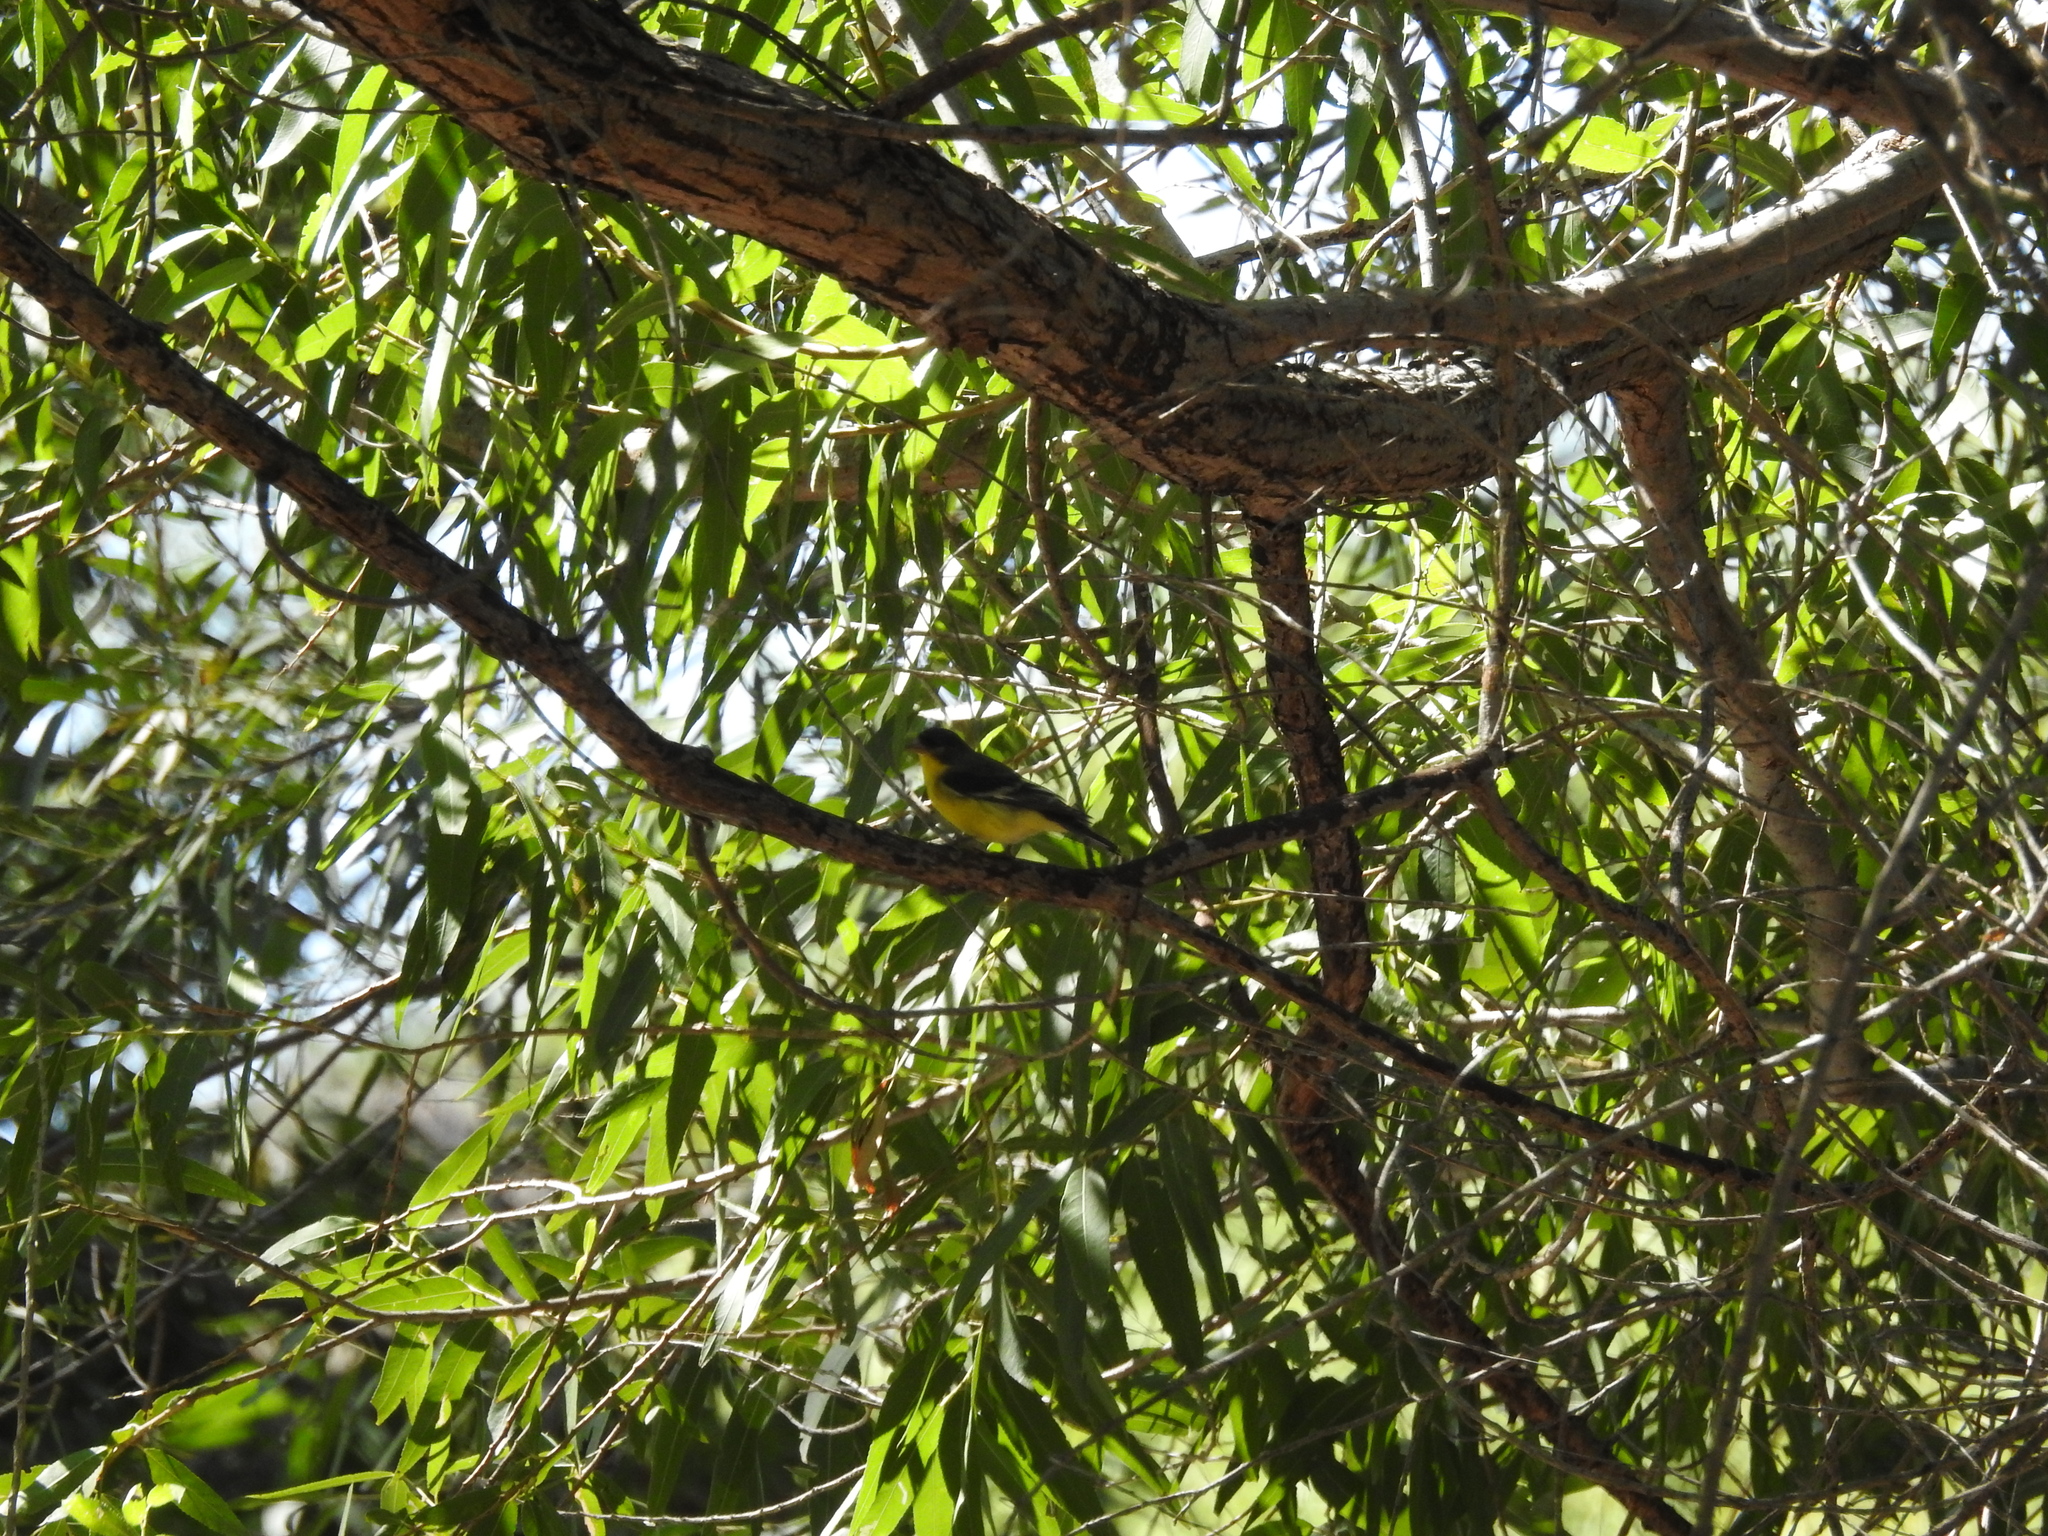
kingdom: Animalia
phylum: Chordata
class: Aves
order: Passeriformes
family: Fringillidae
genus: Spinus
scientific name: Spinus psaltria
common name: Lesser goldfinch
